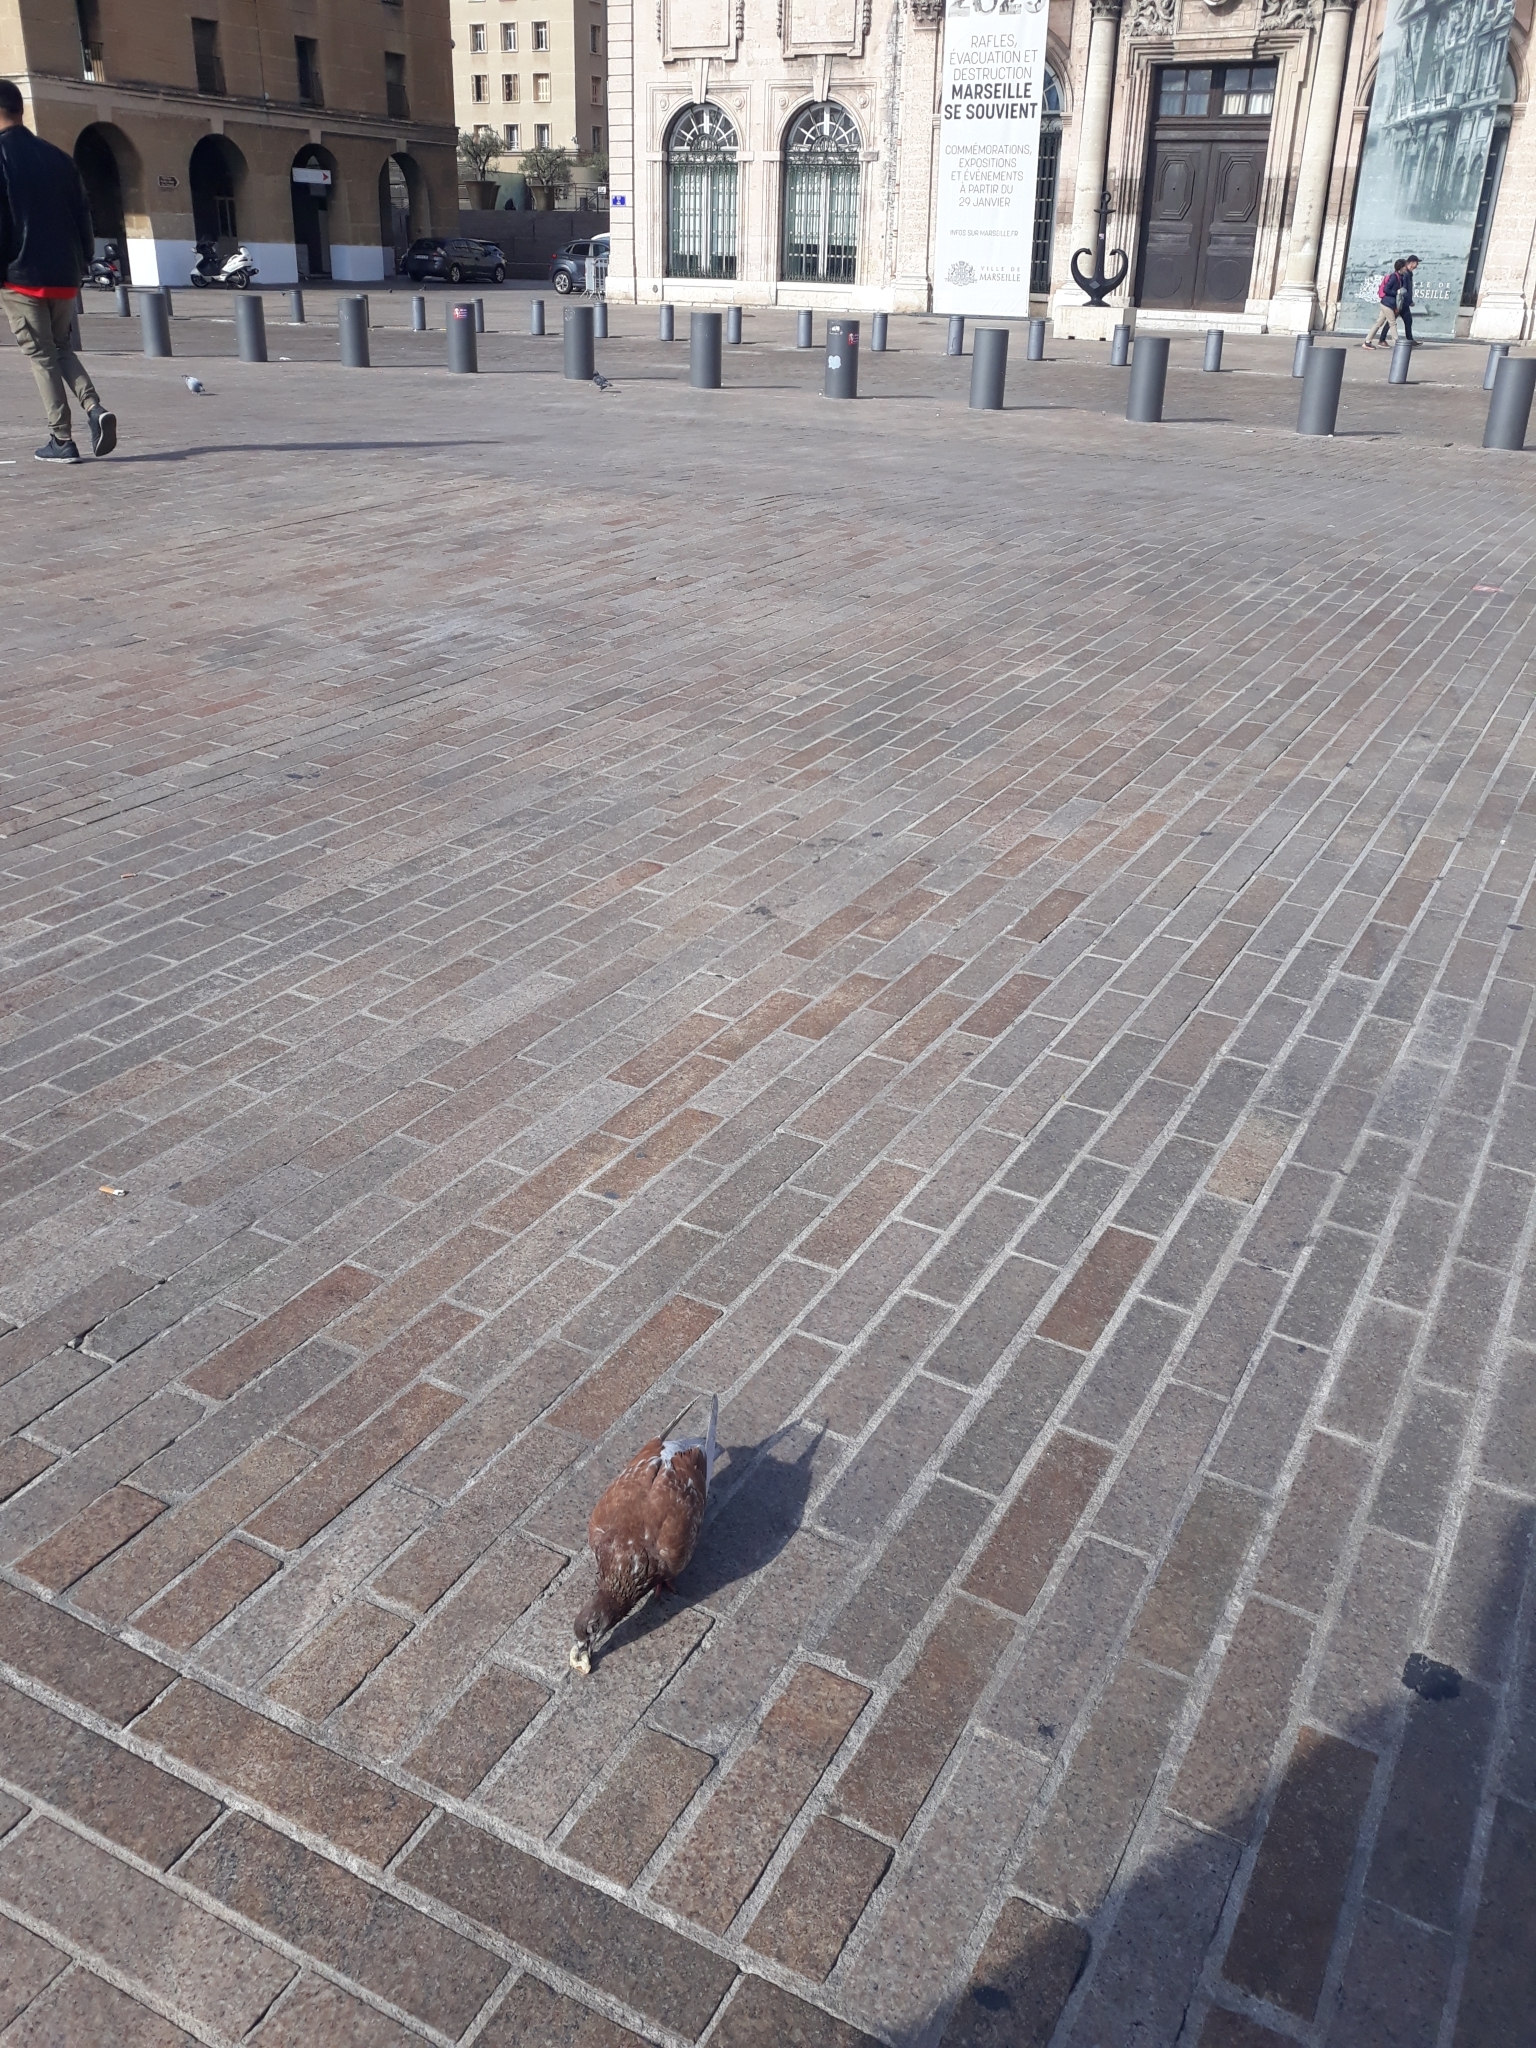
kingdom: Animalia
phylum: Chordata
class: Aves
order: Columbiformes
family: Columbidae
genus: Columba
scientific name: Columba livia
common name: Rock pigeon
